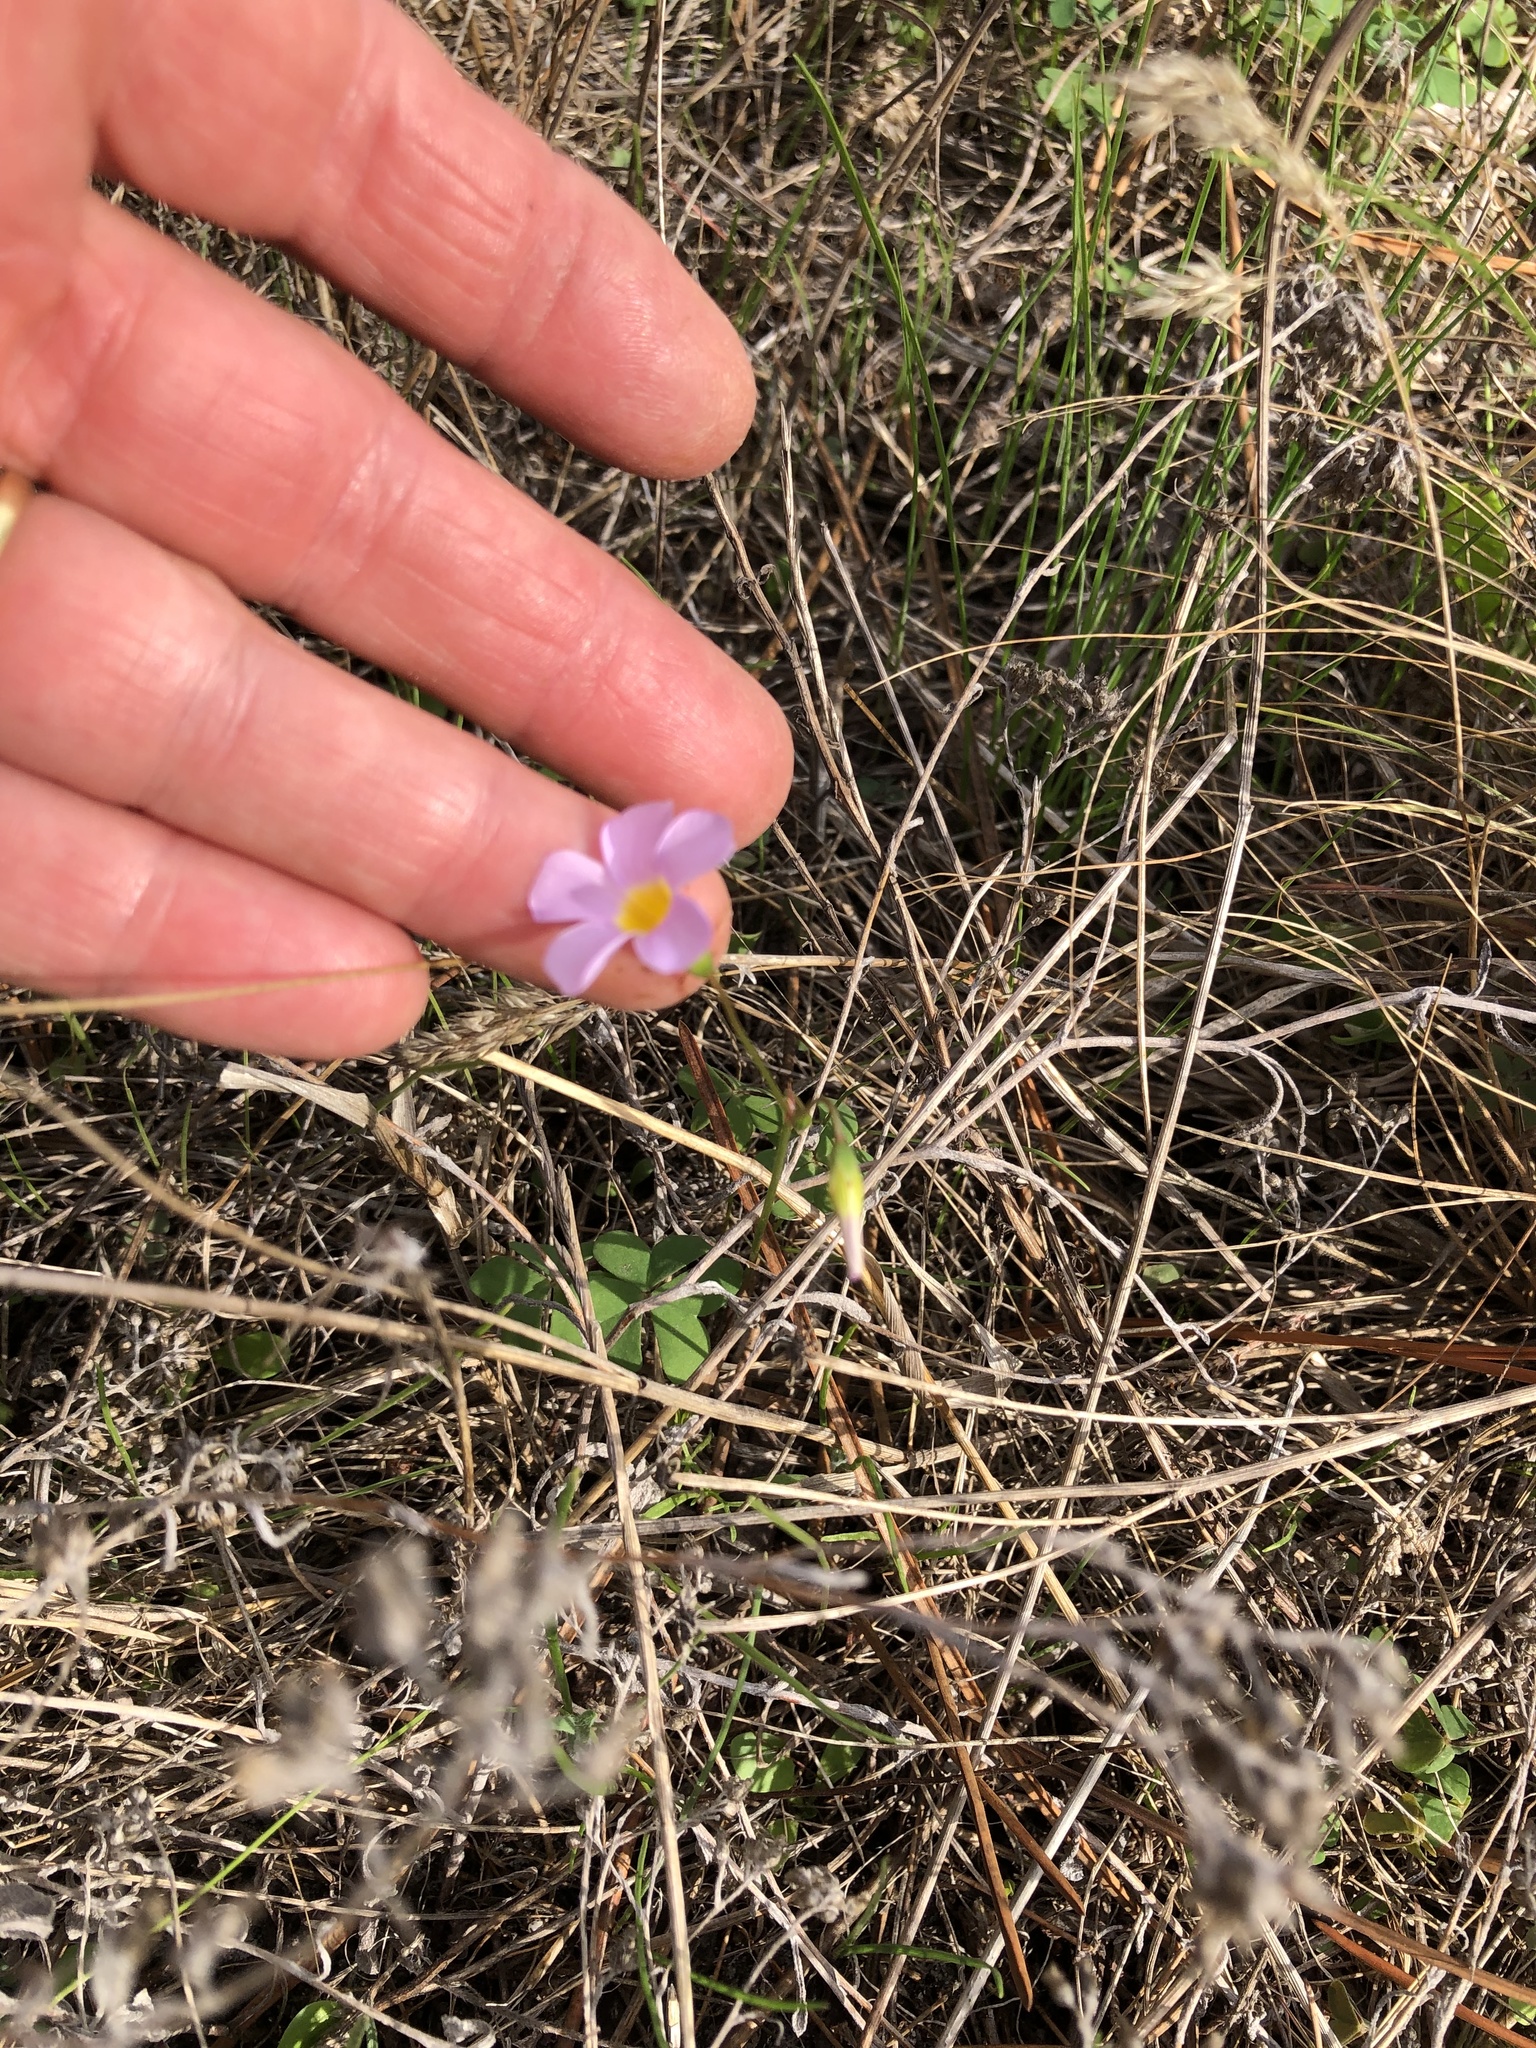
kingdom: Plantae
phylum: Tracheophyta
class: Magnoliopsida
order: Oxalidales
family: Oxalidaceae
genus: Oxalis
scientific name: Oxalis caprina
